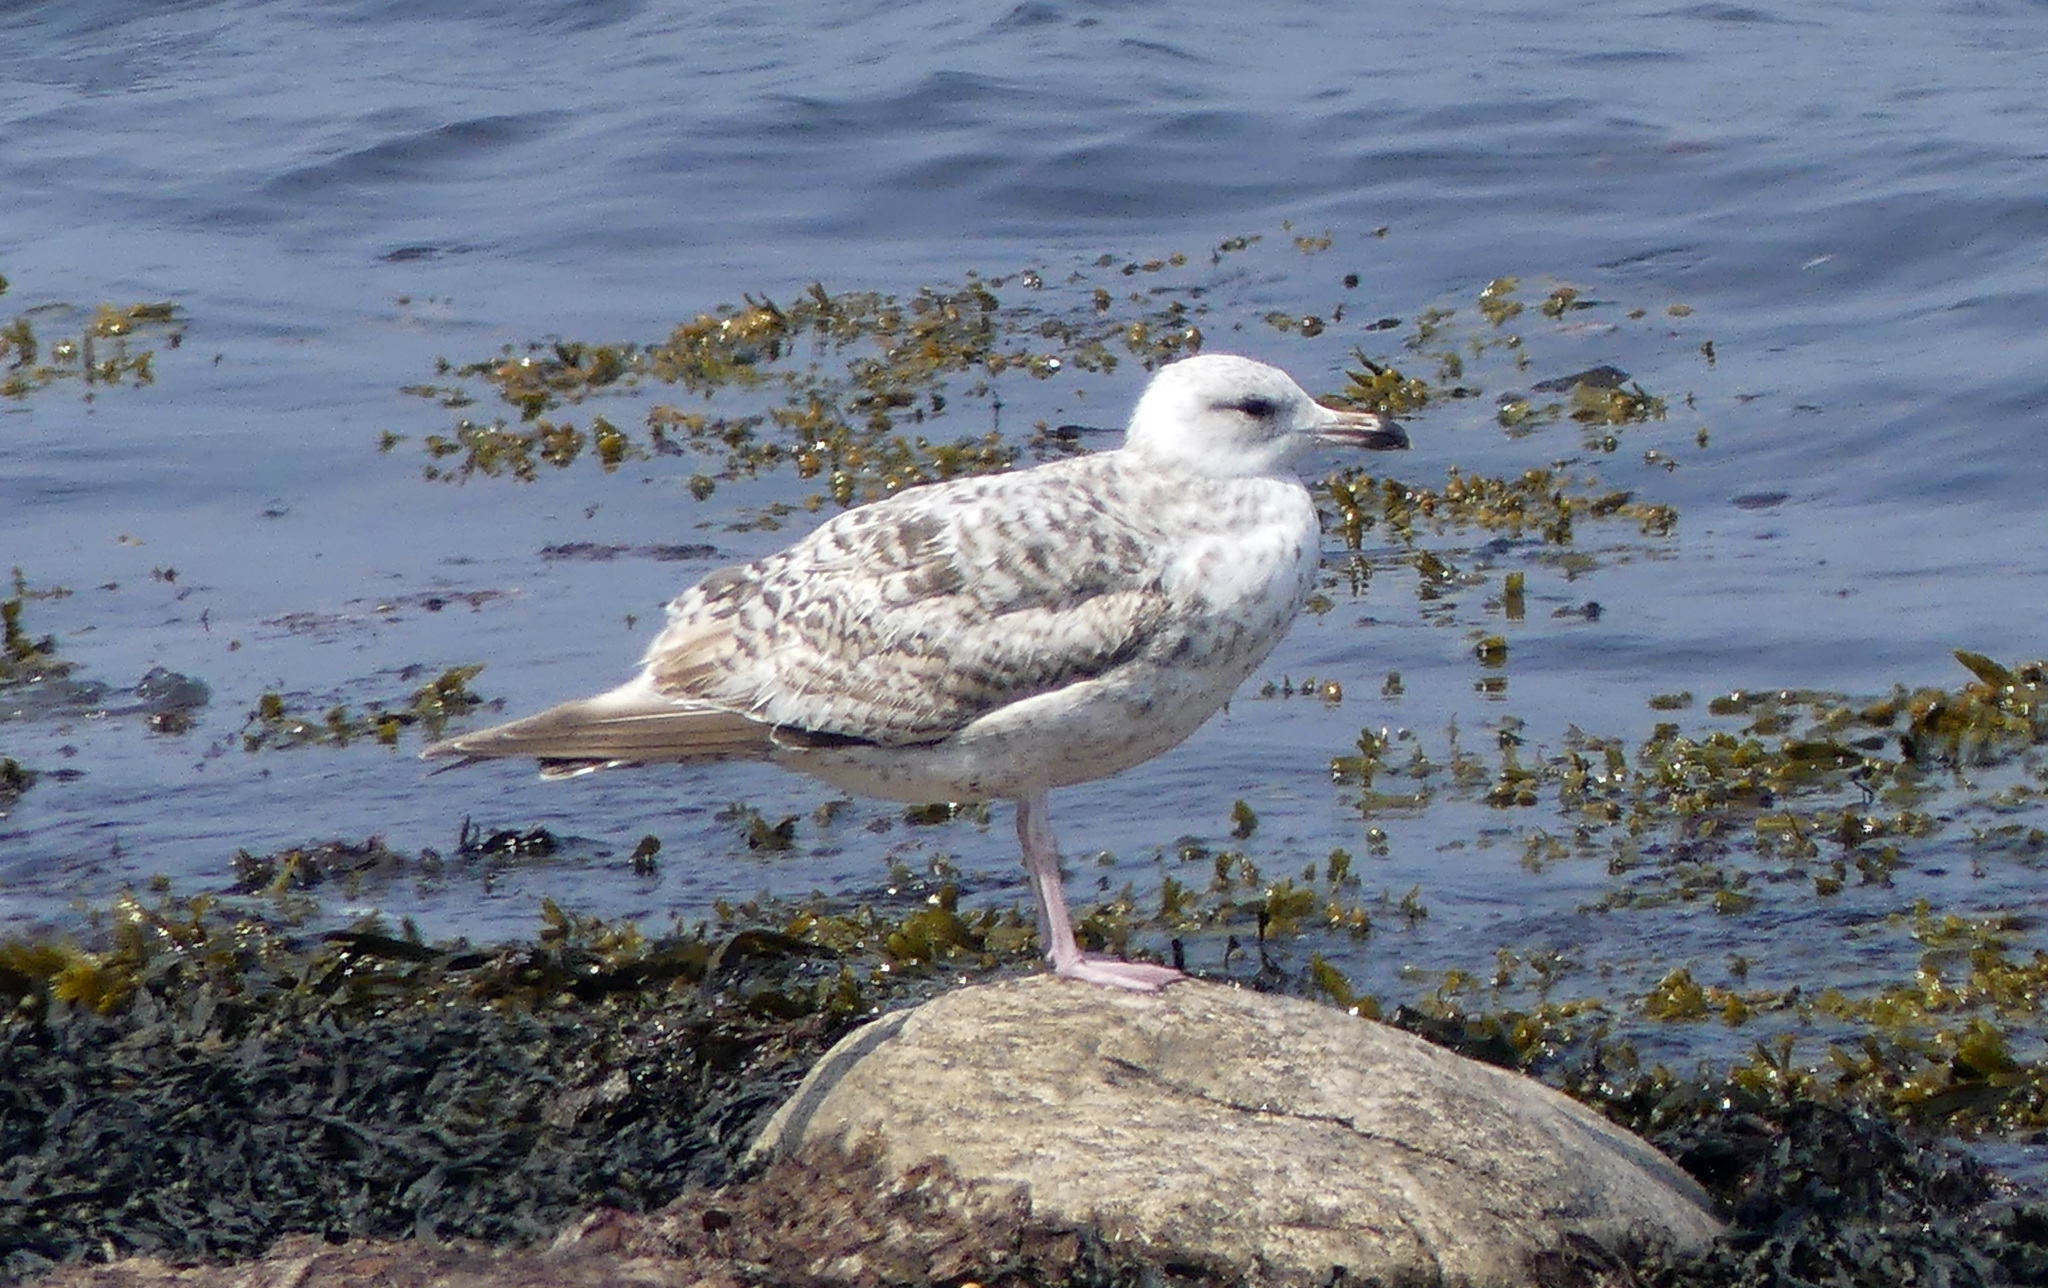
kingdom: Animalia
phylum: Chordata
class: Aves
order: Charadriiformes
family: Laridae
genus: Larus
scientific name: Larus argentatus
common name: Herring gull
